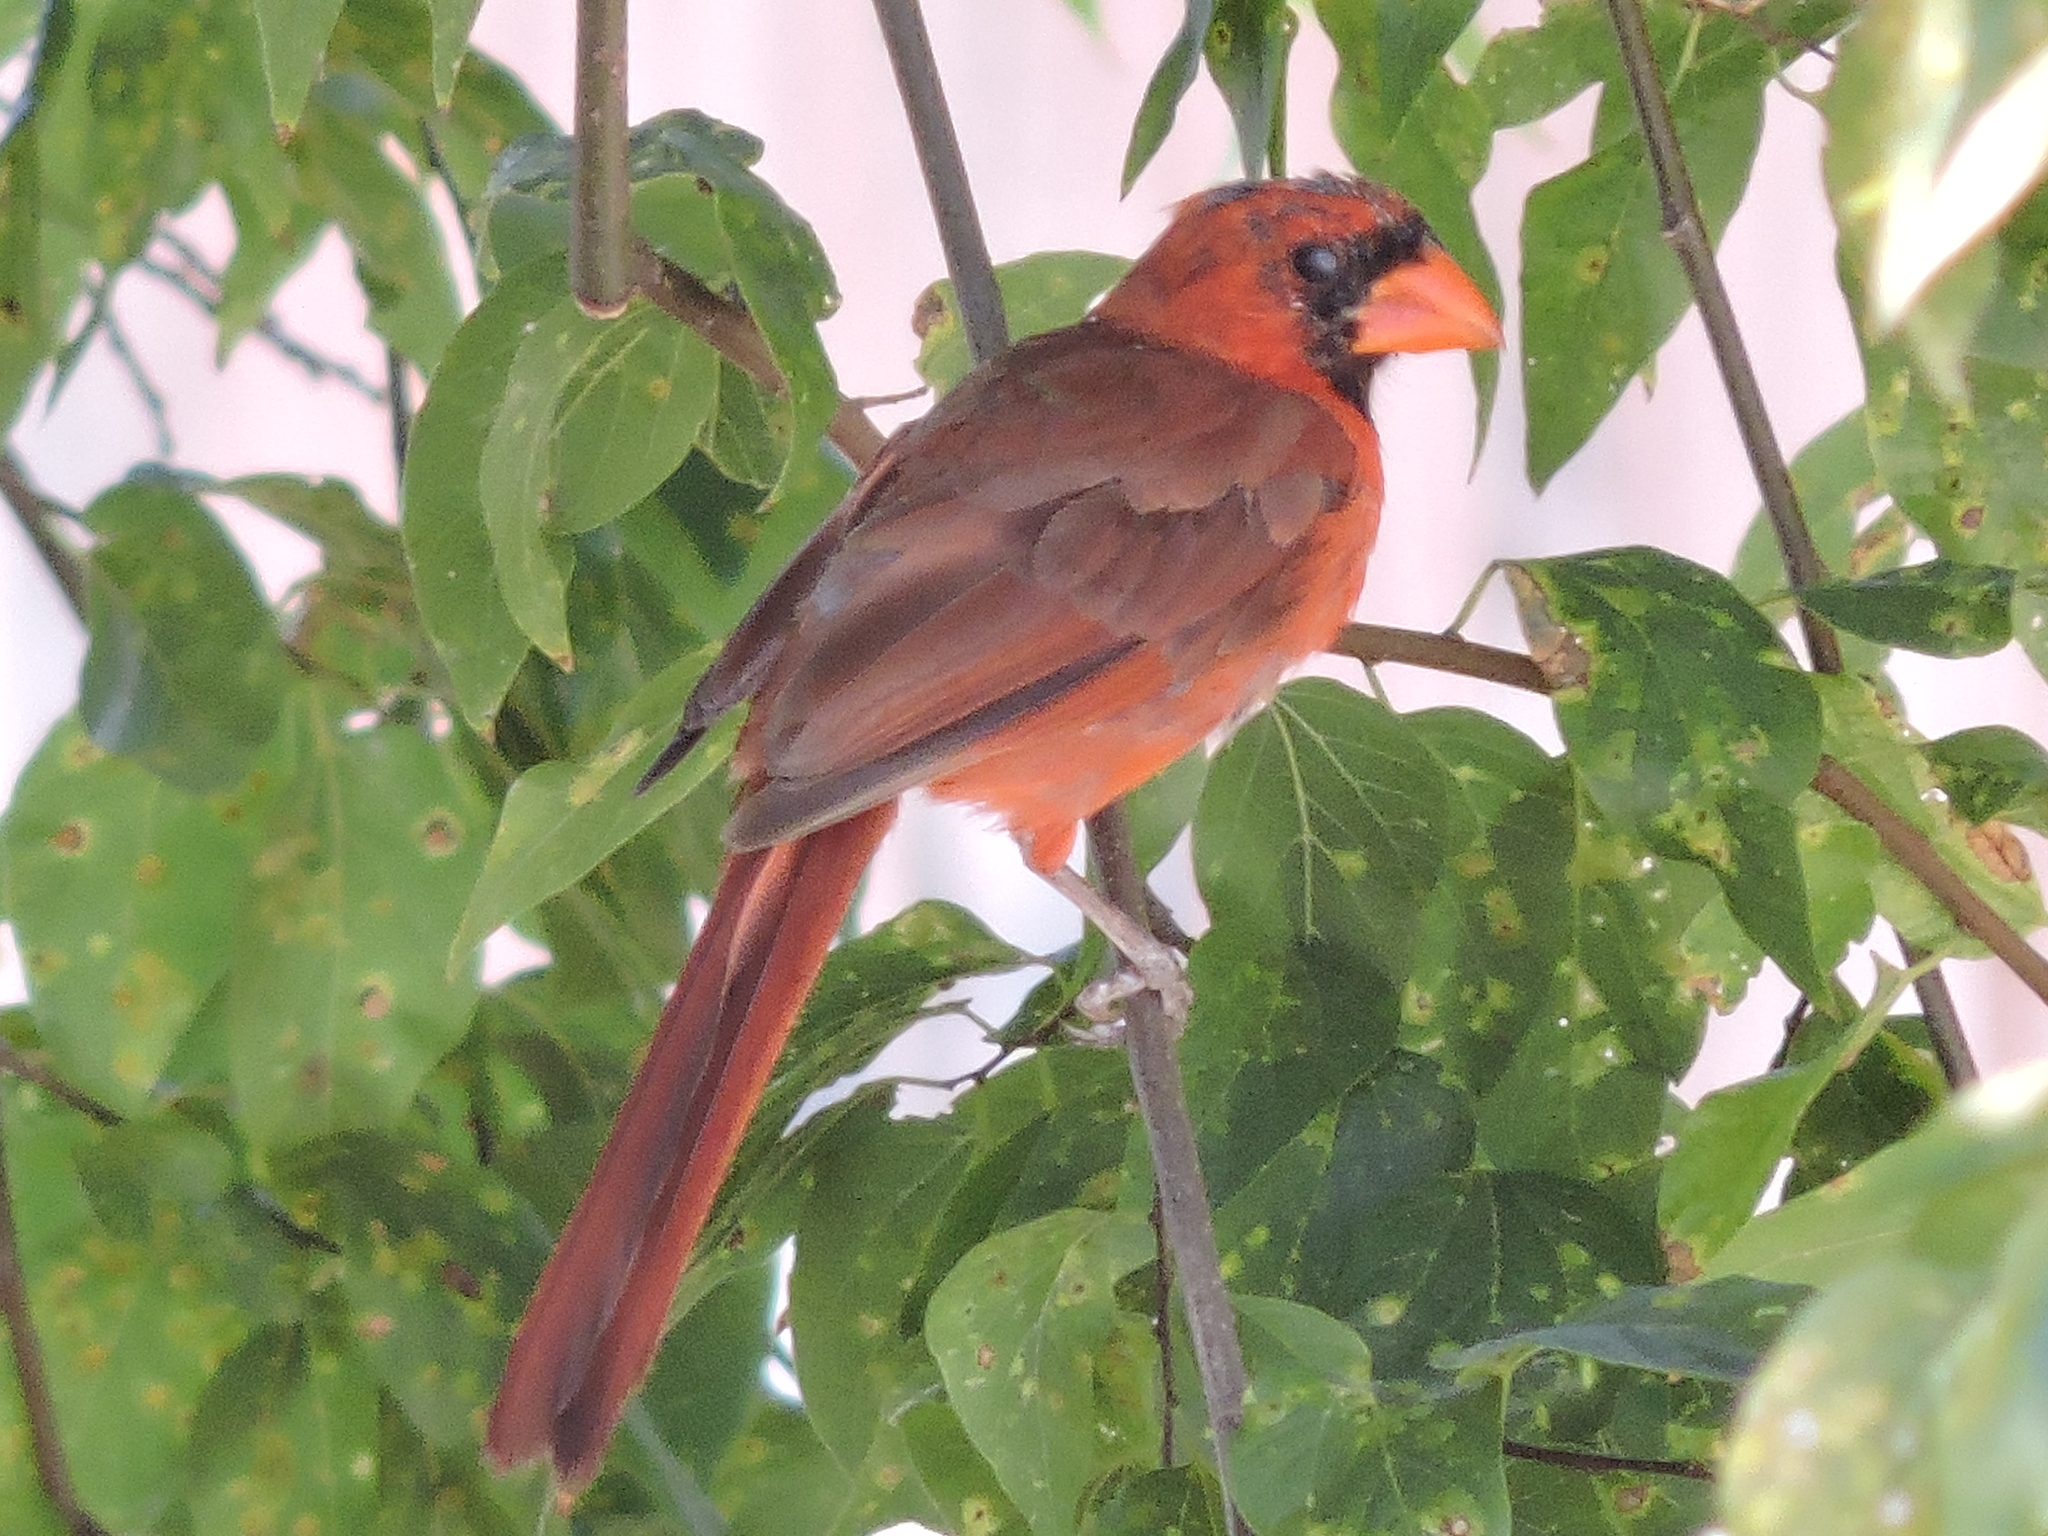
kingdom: Animalia
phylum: Chordata
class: Aves
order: Passeriformes
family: Cardinalidae
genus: Cardinalis
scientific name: Cardinalis cardinalis
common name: Northern cardinal
